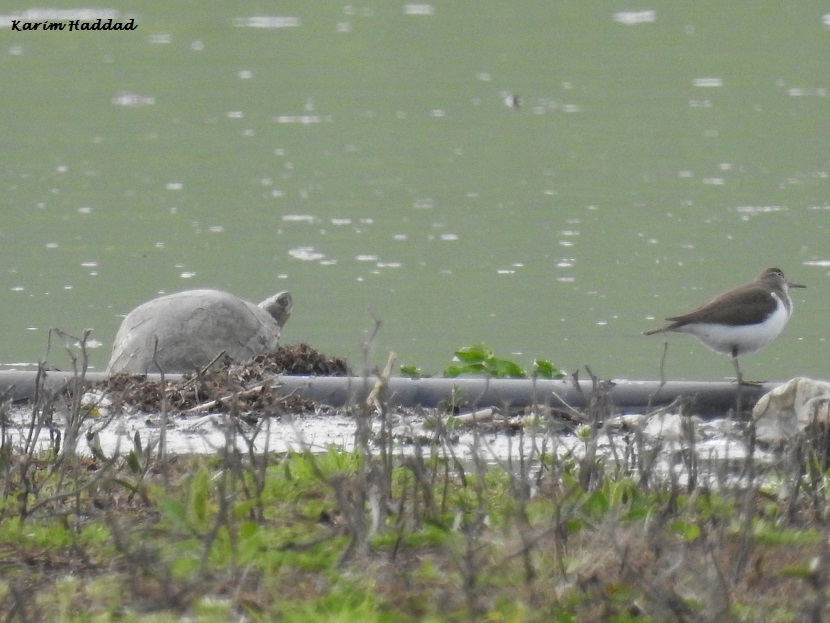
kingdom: Animalia
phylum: Chordata
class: Aves
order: Charadriiformes
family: Scolopacidae
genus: Actitis
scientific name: Actitis hypoleucos
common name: Common sandpiper
